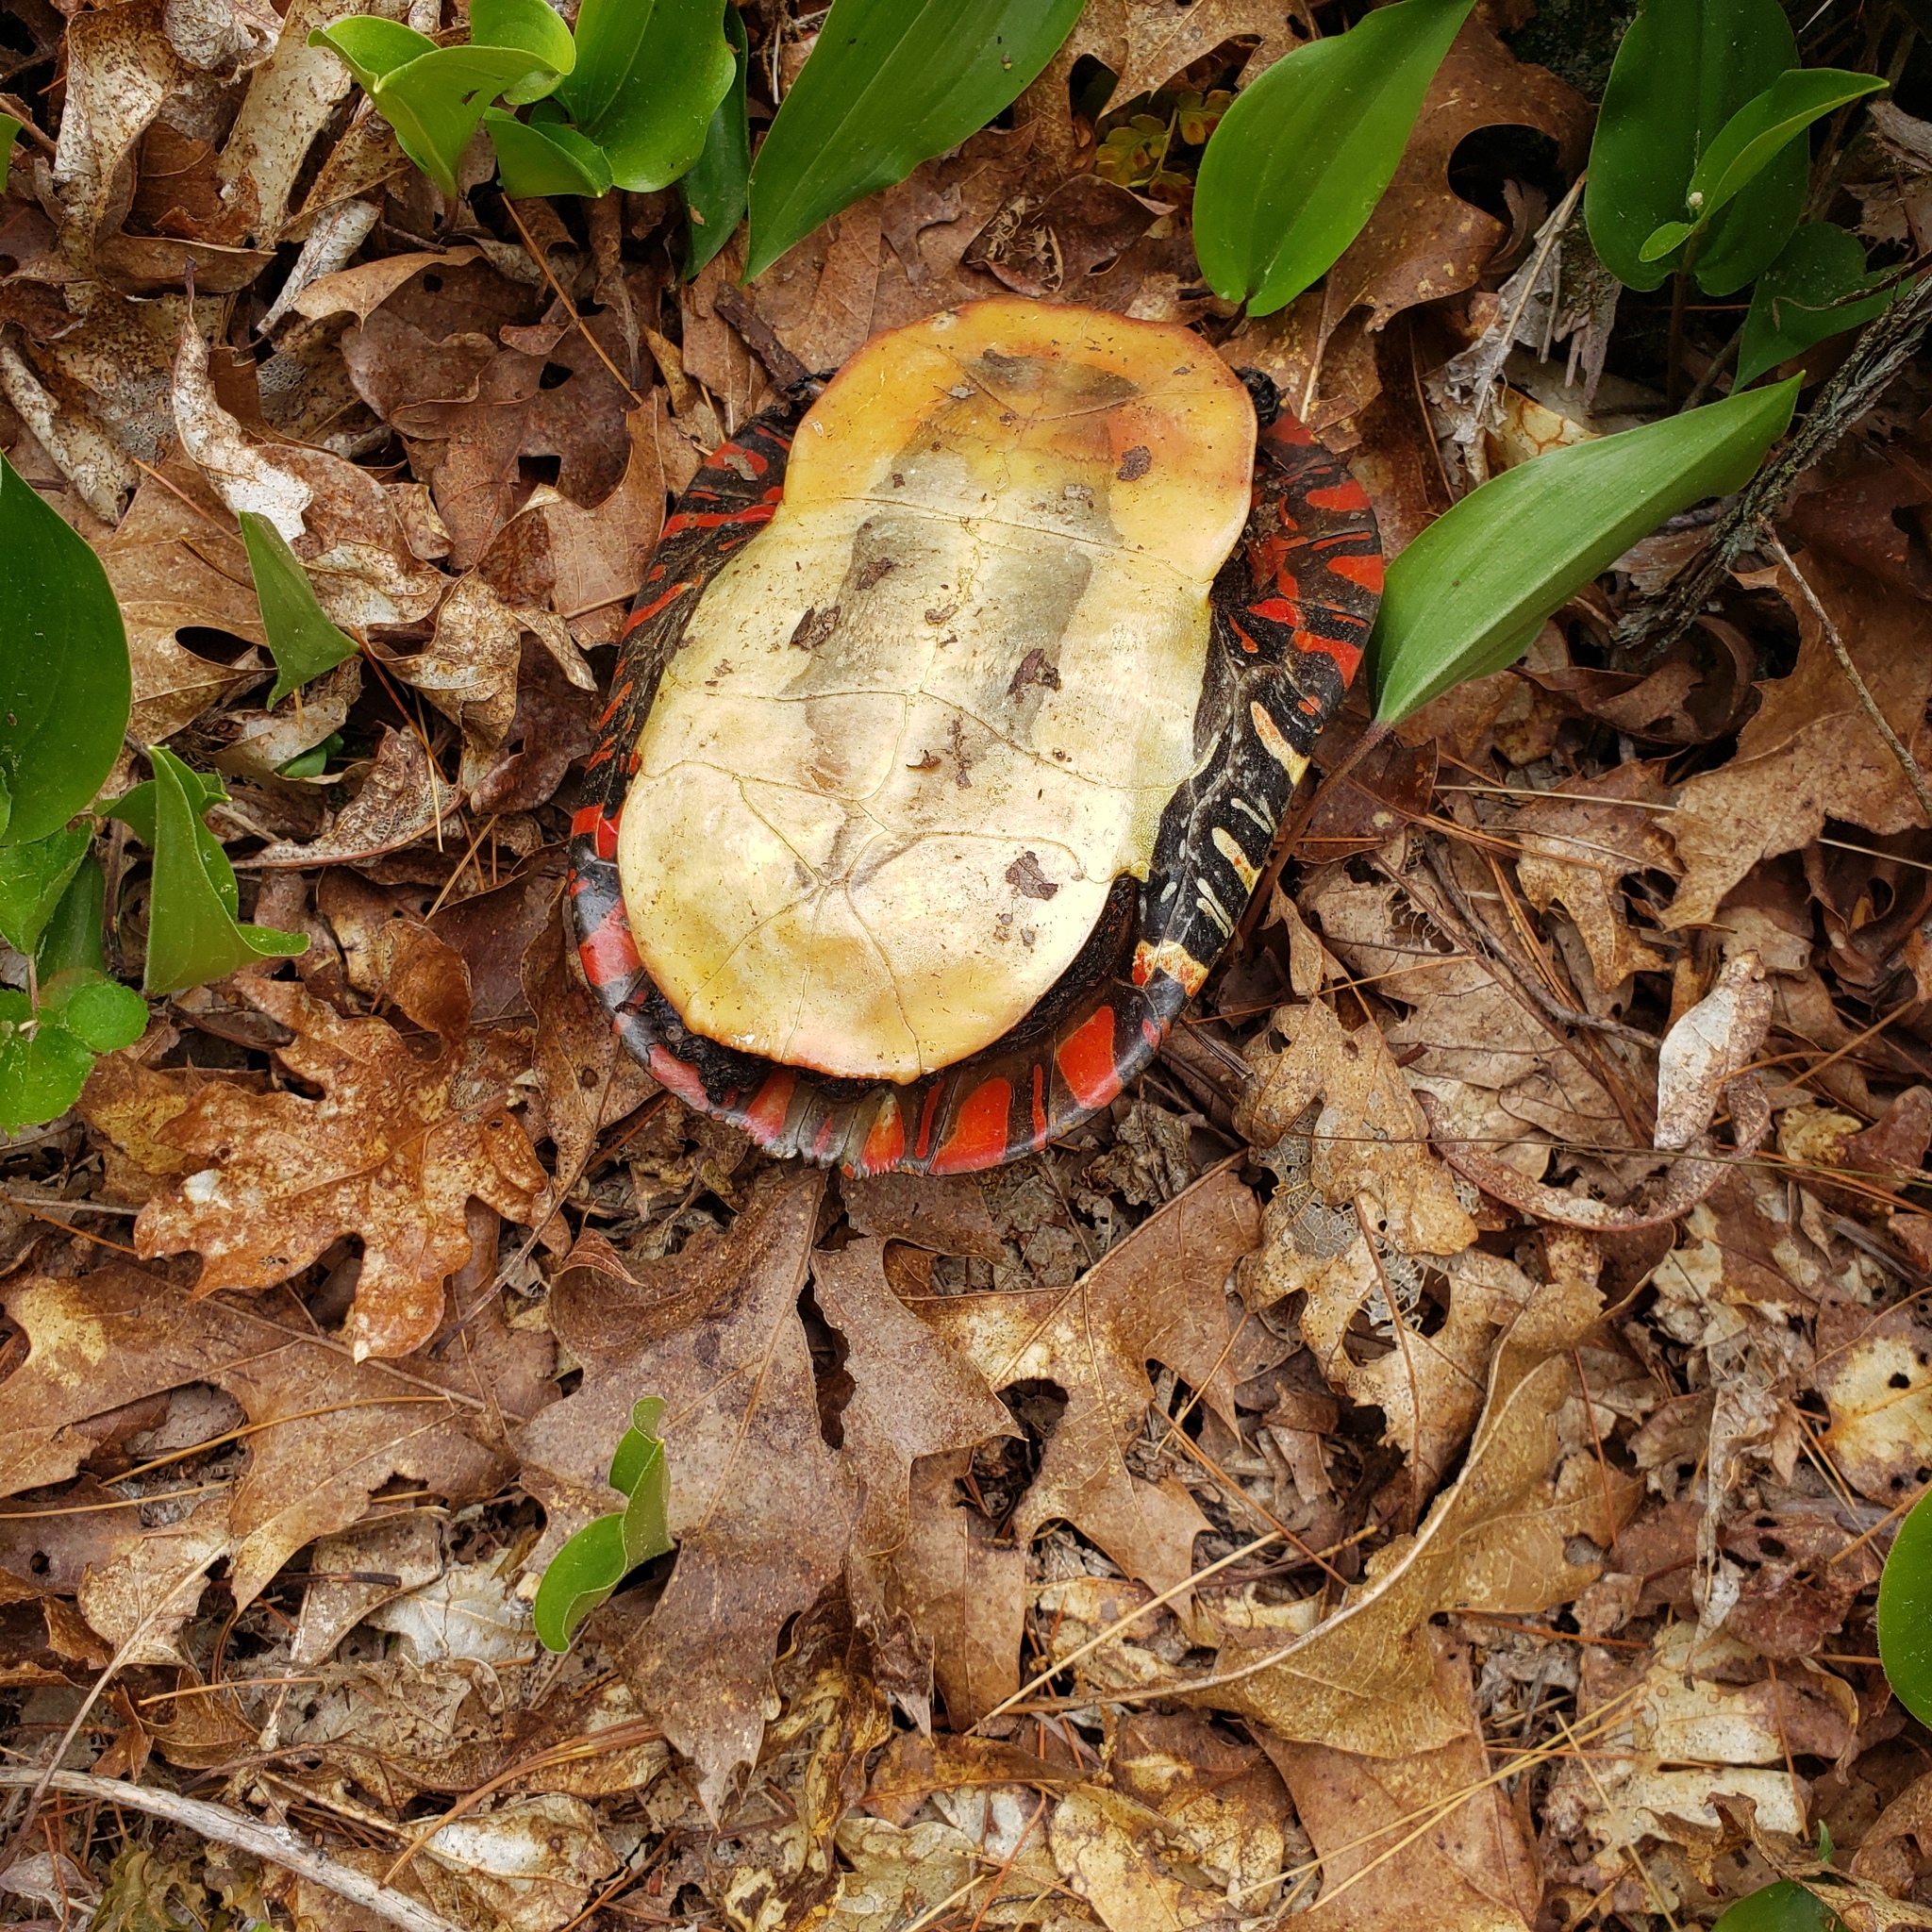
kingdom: Animalia
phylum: Chordata
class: Testudines
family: Emydidae
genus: Chrysemys
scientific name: Chrysemys picta
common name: Painted turtle
